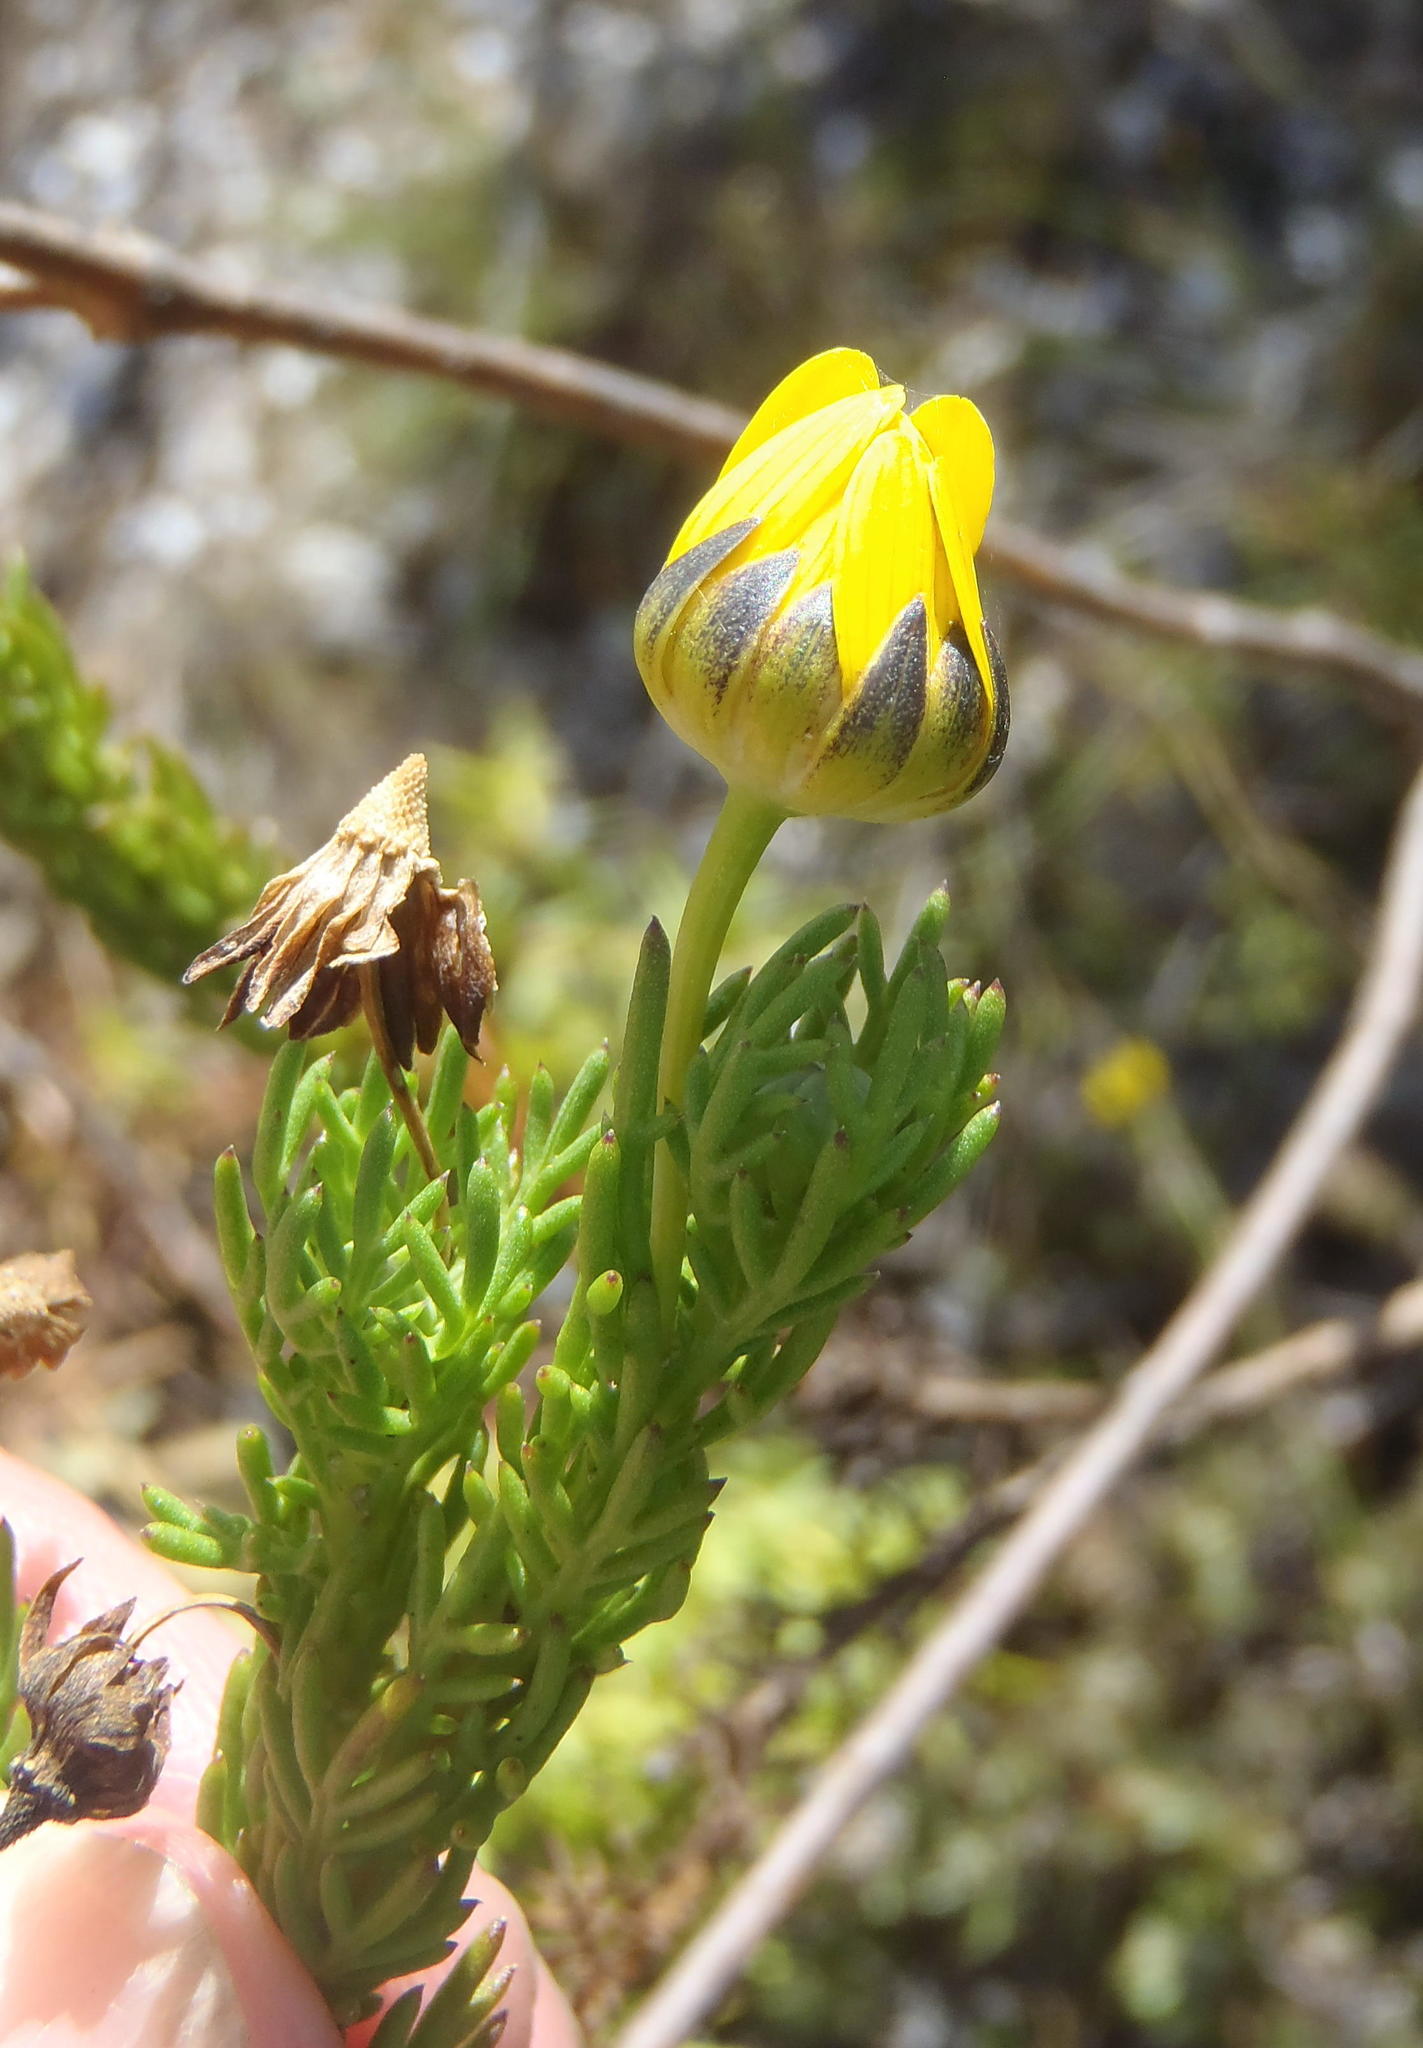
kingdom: Plantae
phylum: Tracheophyta
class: Magnoliopsida
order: Asterales
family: Asteraceae
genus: Euryops
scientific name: Euryops pinnatipartitus
